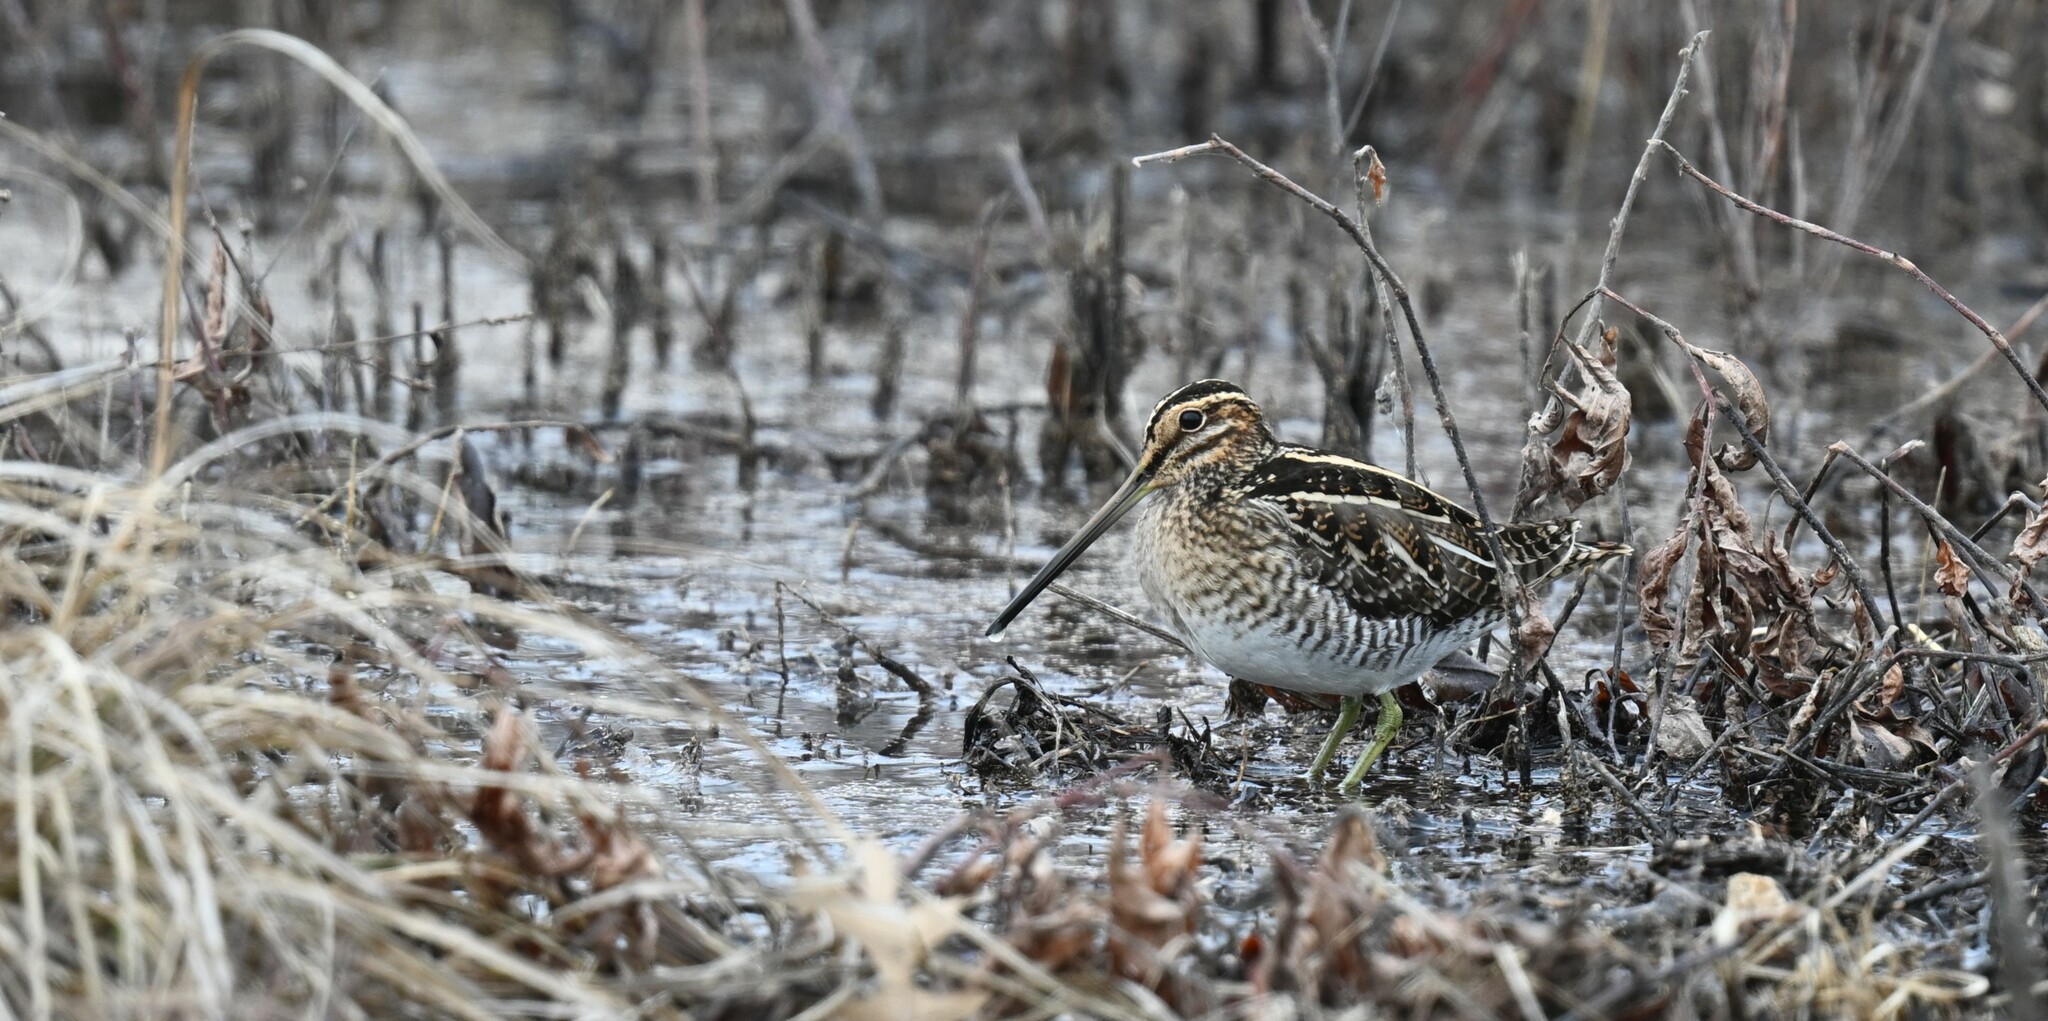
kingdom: Animalia
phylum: Chordata
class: Aves
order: Charadriiformes
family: Scolopacidae
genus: Gallinago
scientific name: Gallinago delicata
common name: Wilson's snipe
